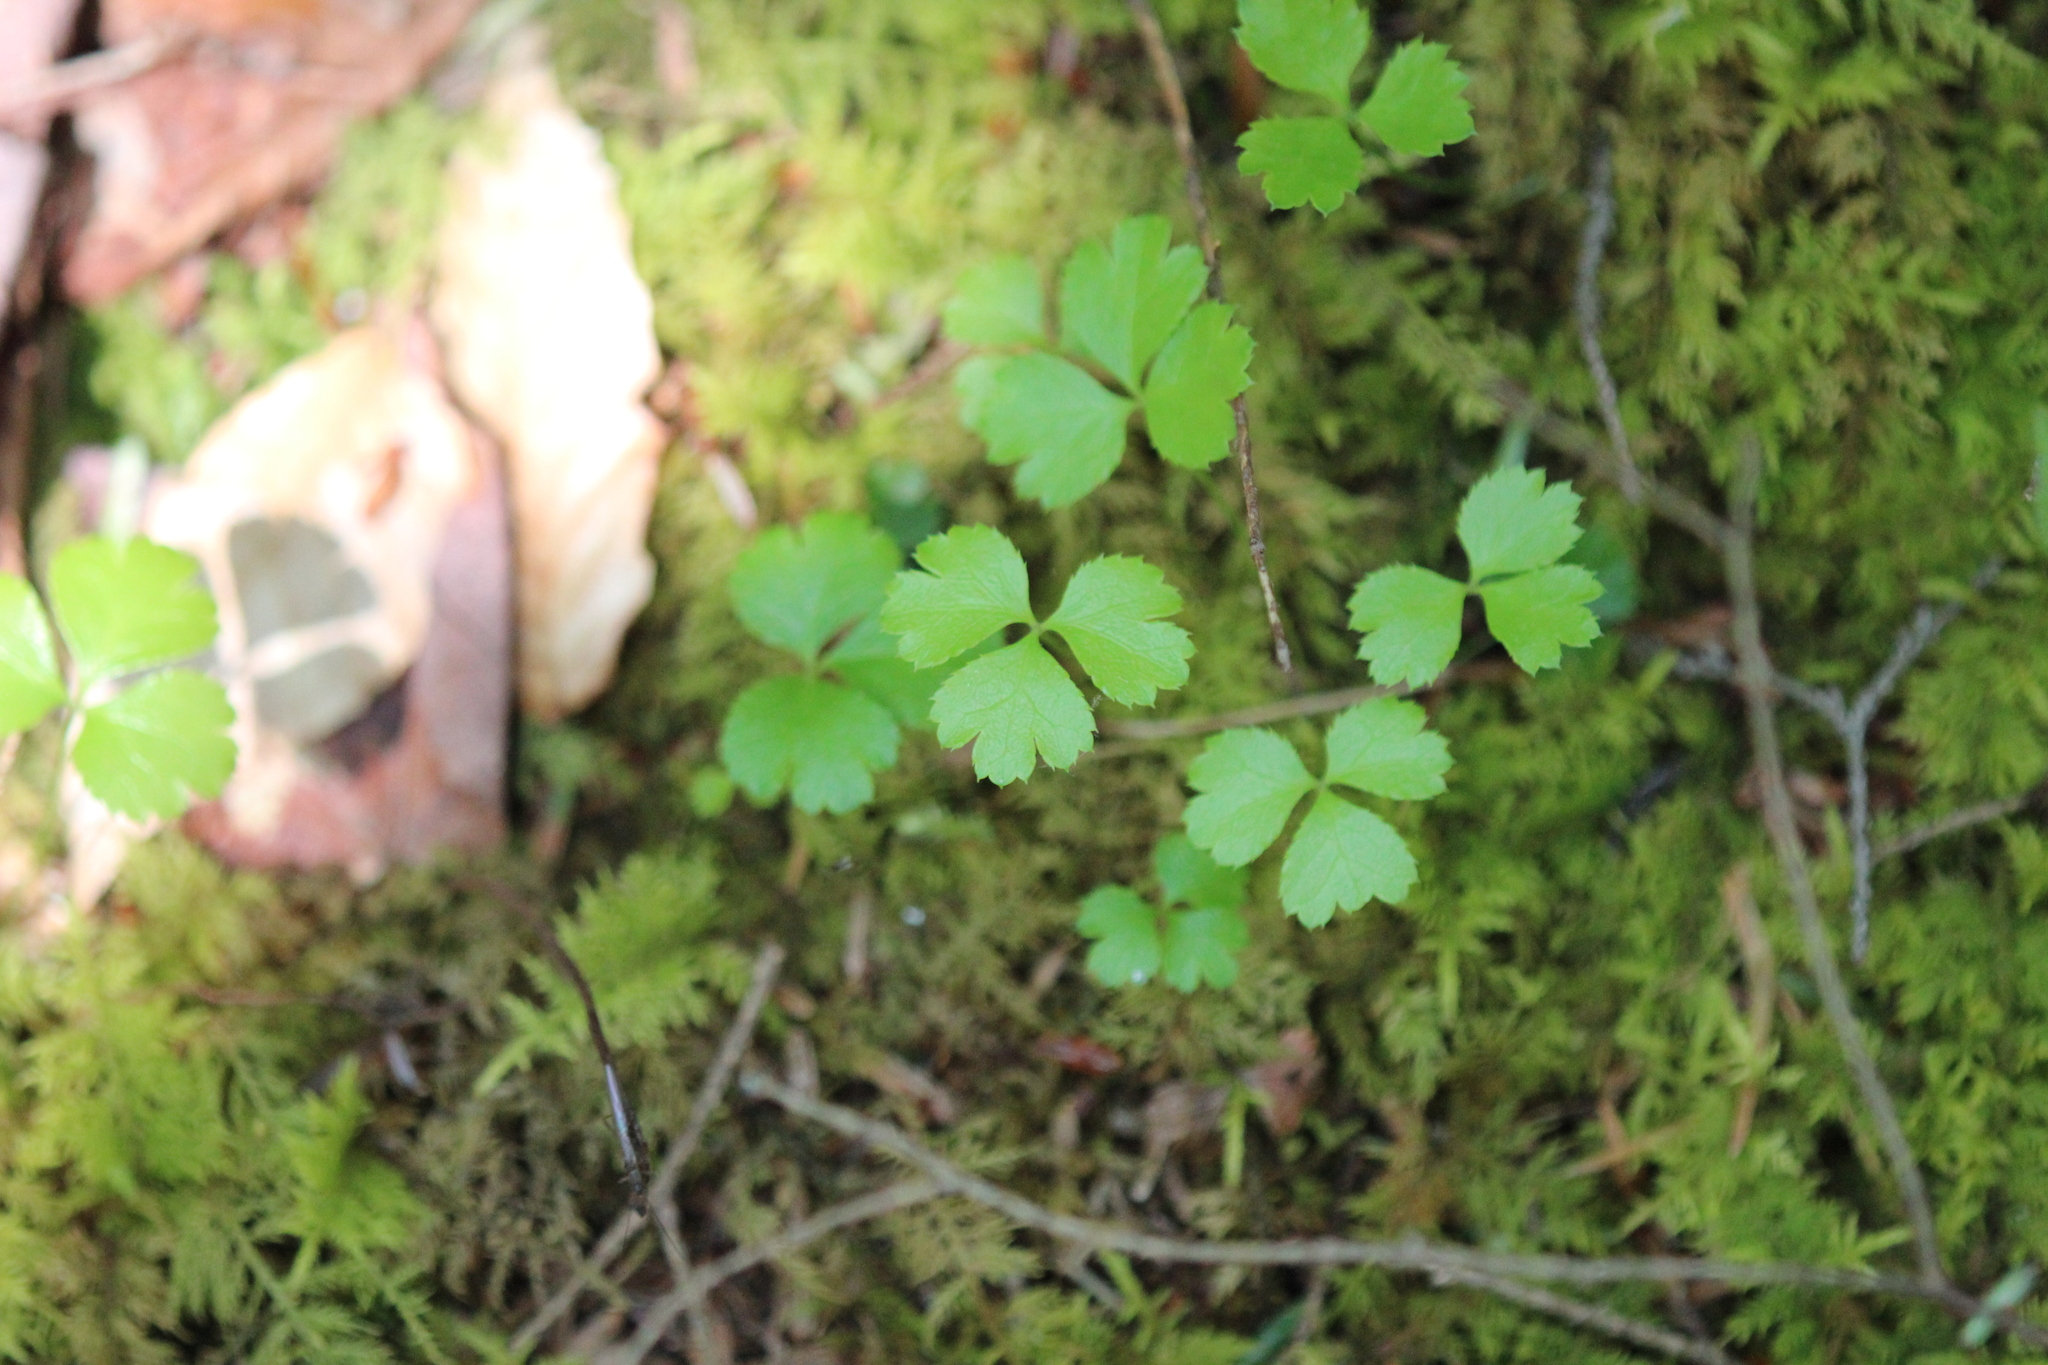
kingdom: Plantae
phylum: Tracheophyta
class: Magnoliopsida
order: Ranunculales
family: Ranunculaceae
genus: Coptis
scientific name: Coptis trifolia
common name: Canker-root
